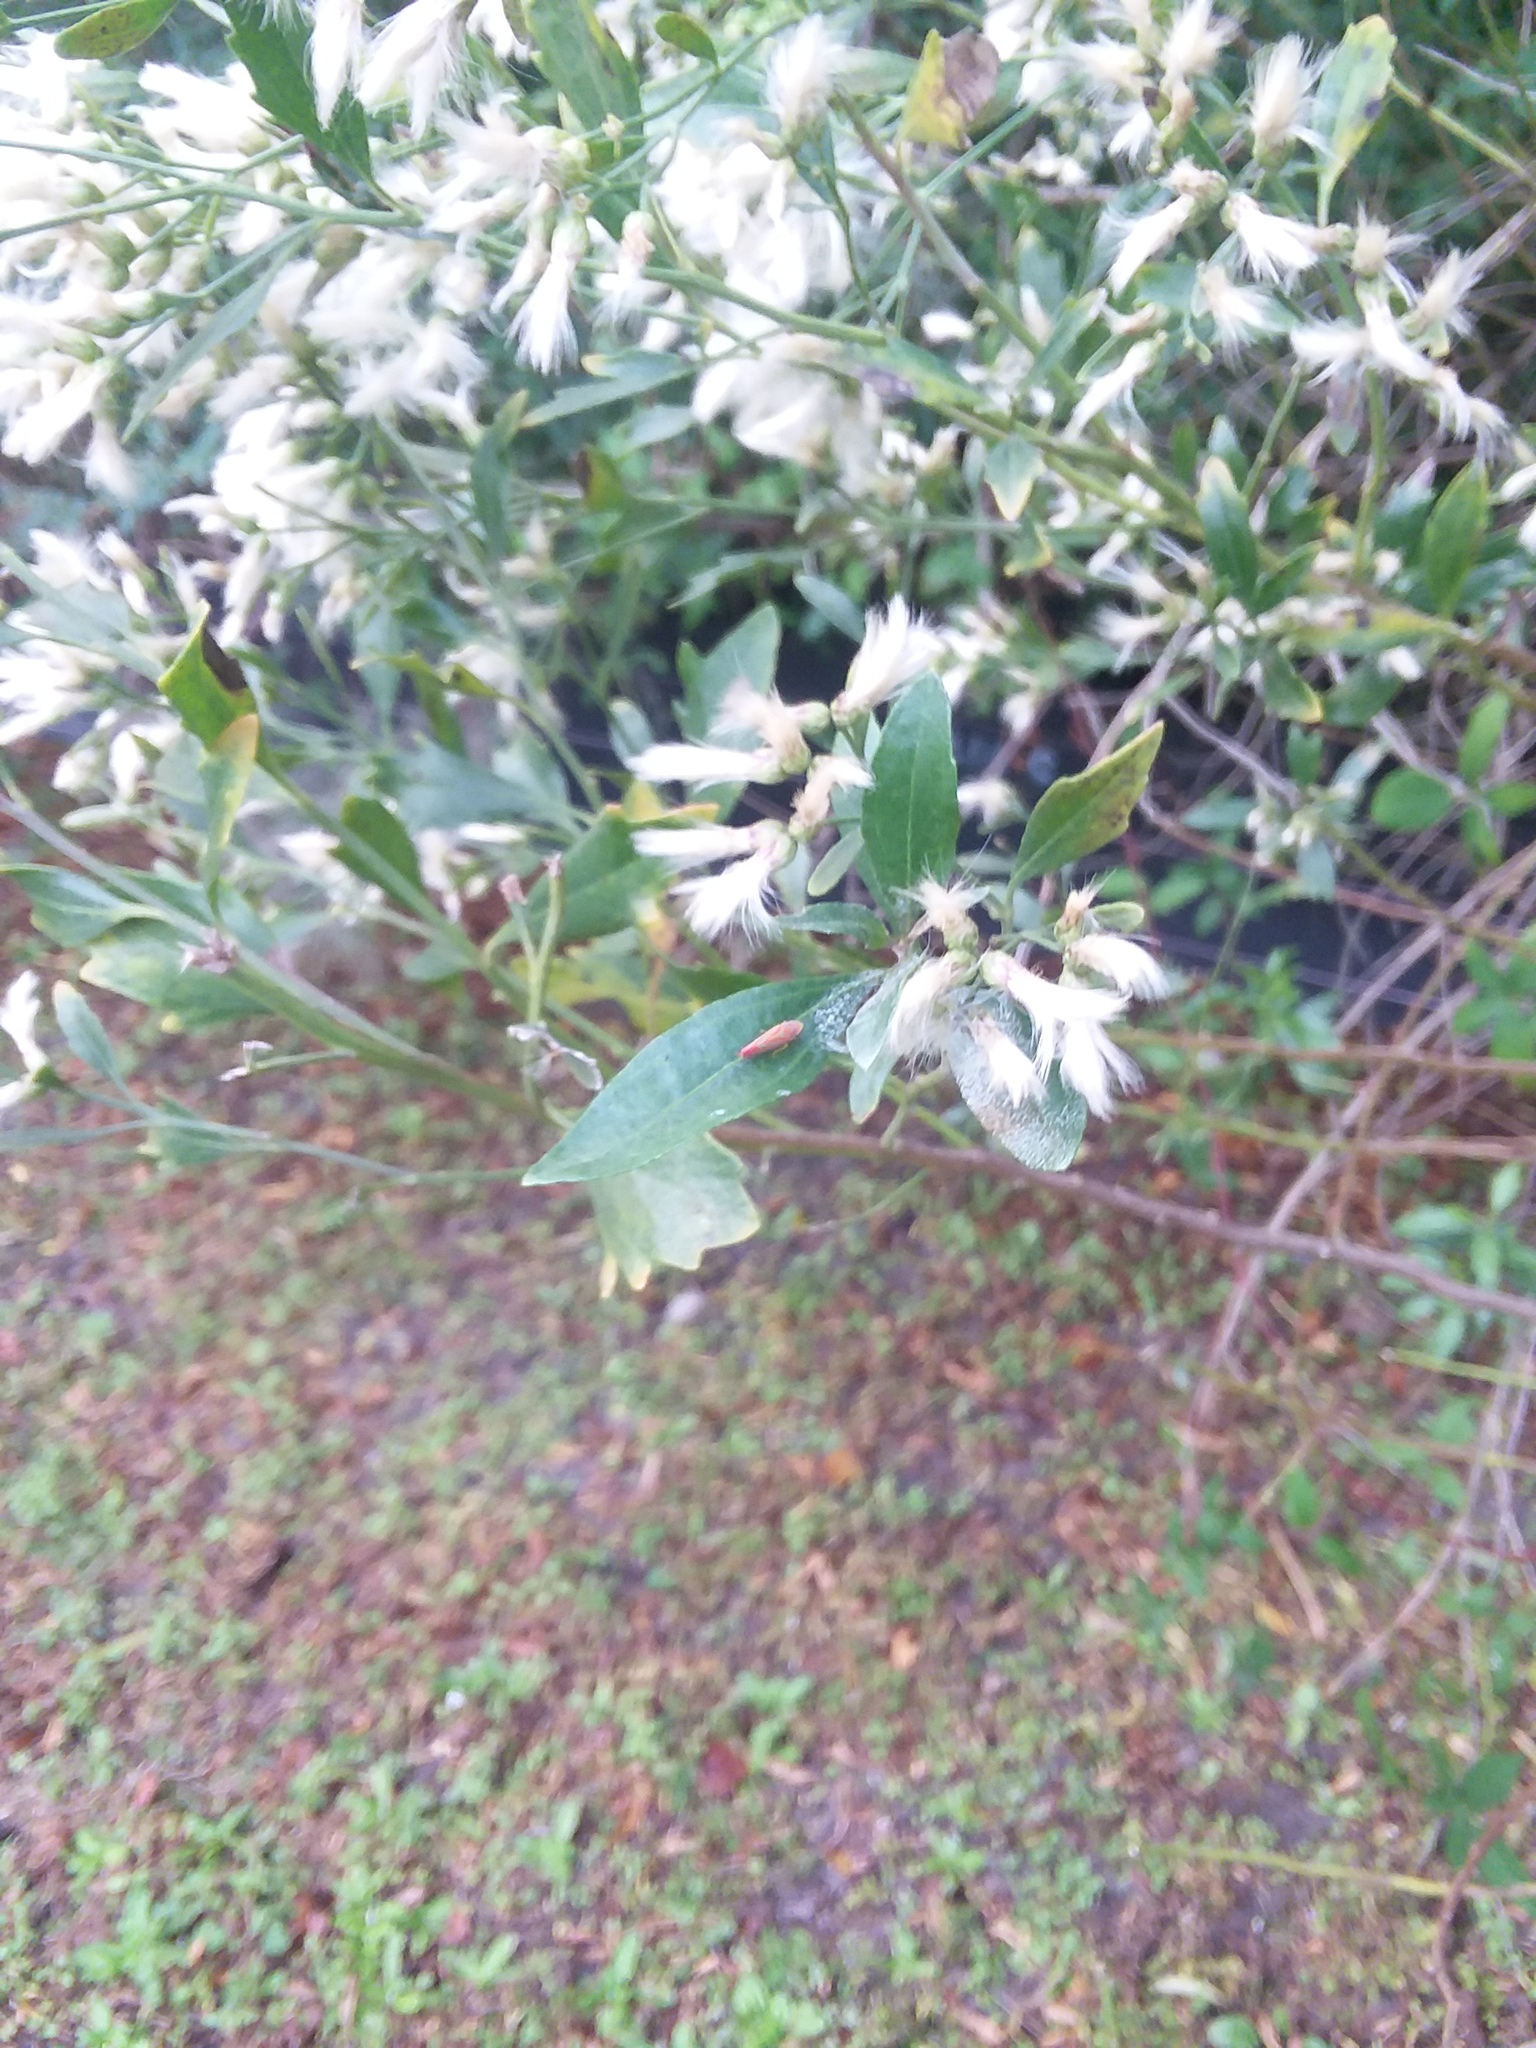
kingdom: Plantae
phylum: Tracheophyta
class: Magnoliopsida
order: Asterales
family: Asteraceae
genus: Baccharis
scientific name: Baccharis halimifolia
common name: Eastern baccharis
